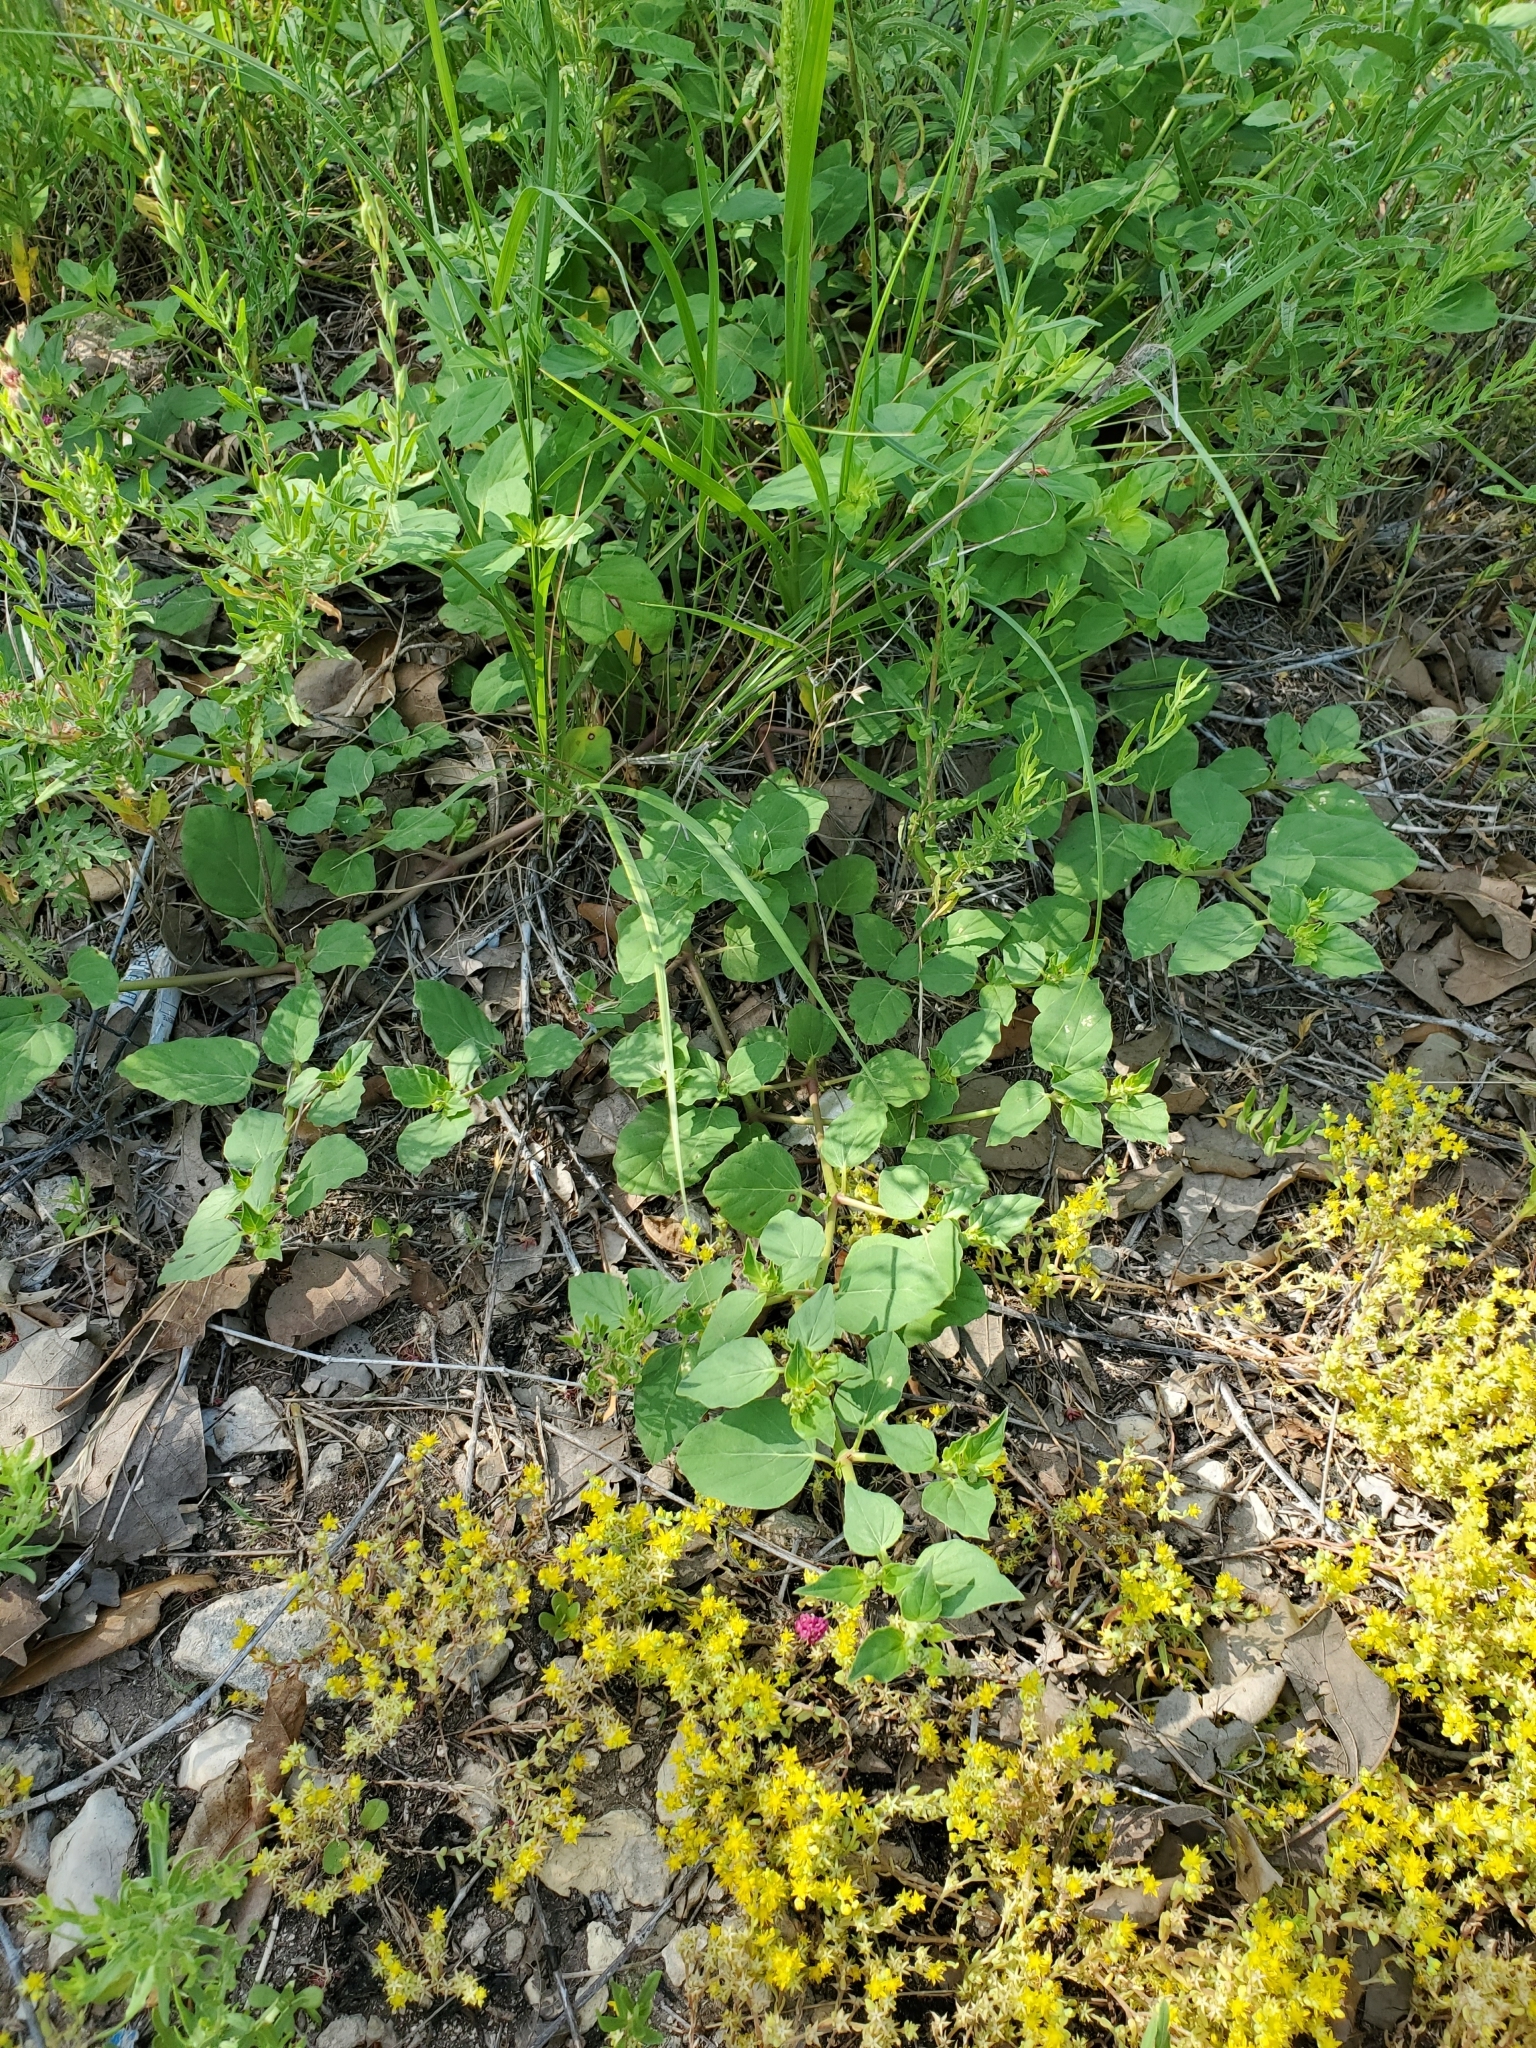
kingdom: Plantae
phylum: Tracheophyta
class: Magnoliopsida
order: Caryophyllales
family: Nyctaginaceae
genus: Boerhavia
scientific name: Boerhavia coccinea
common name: Scarlet spiderling
